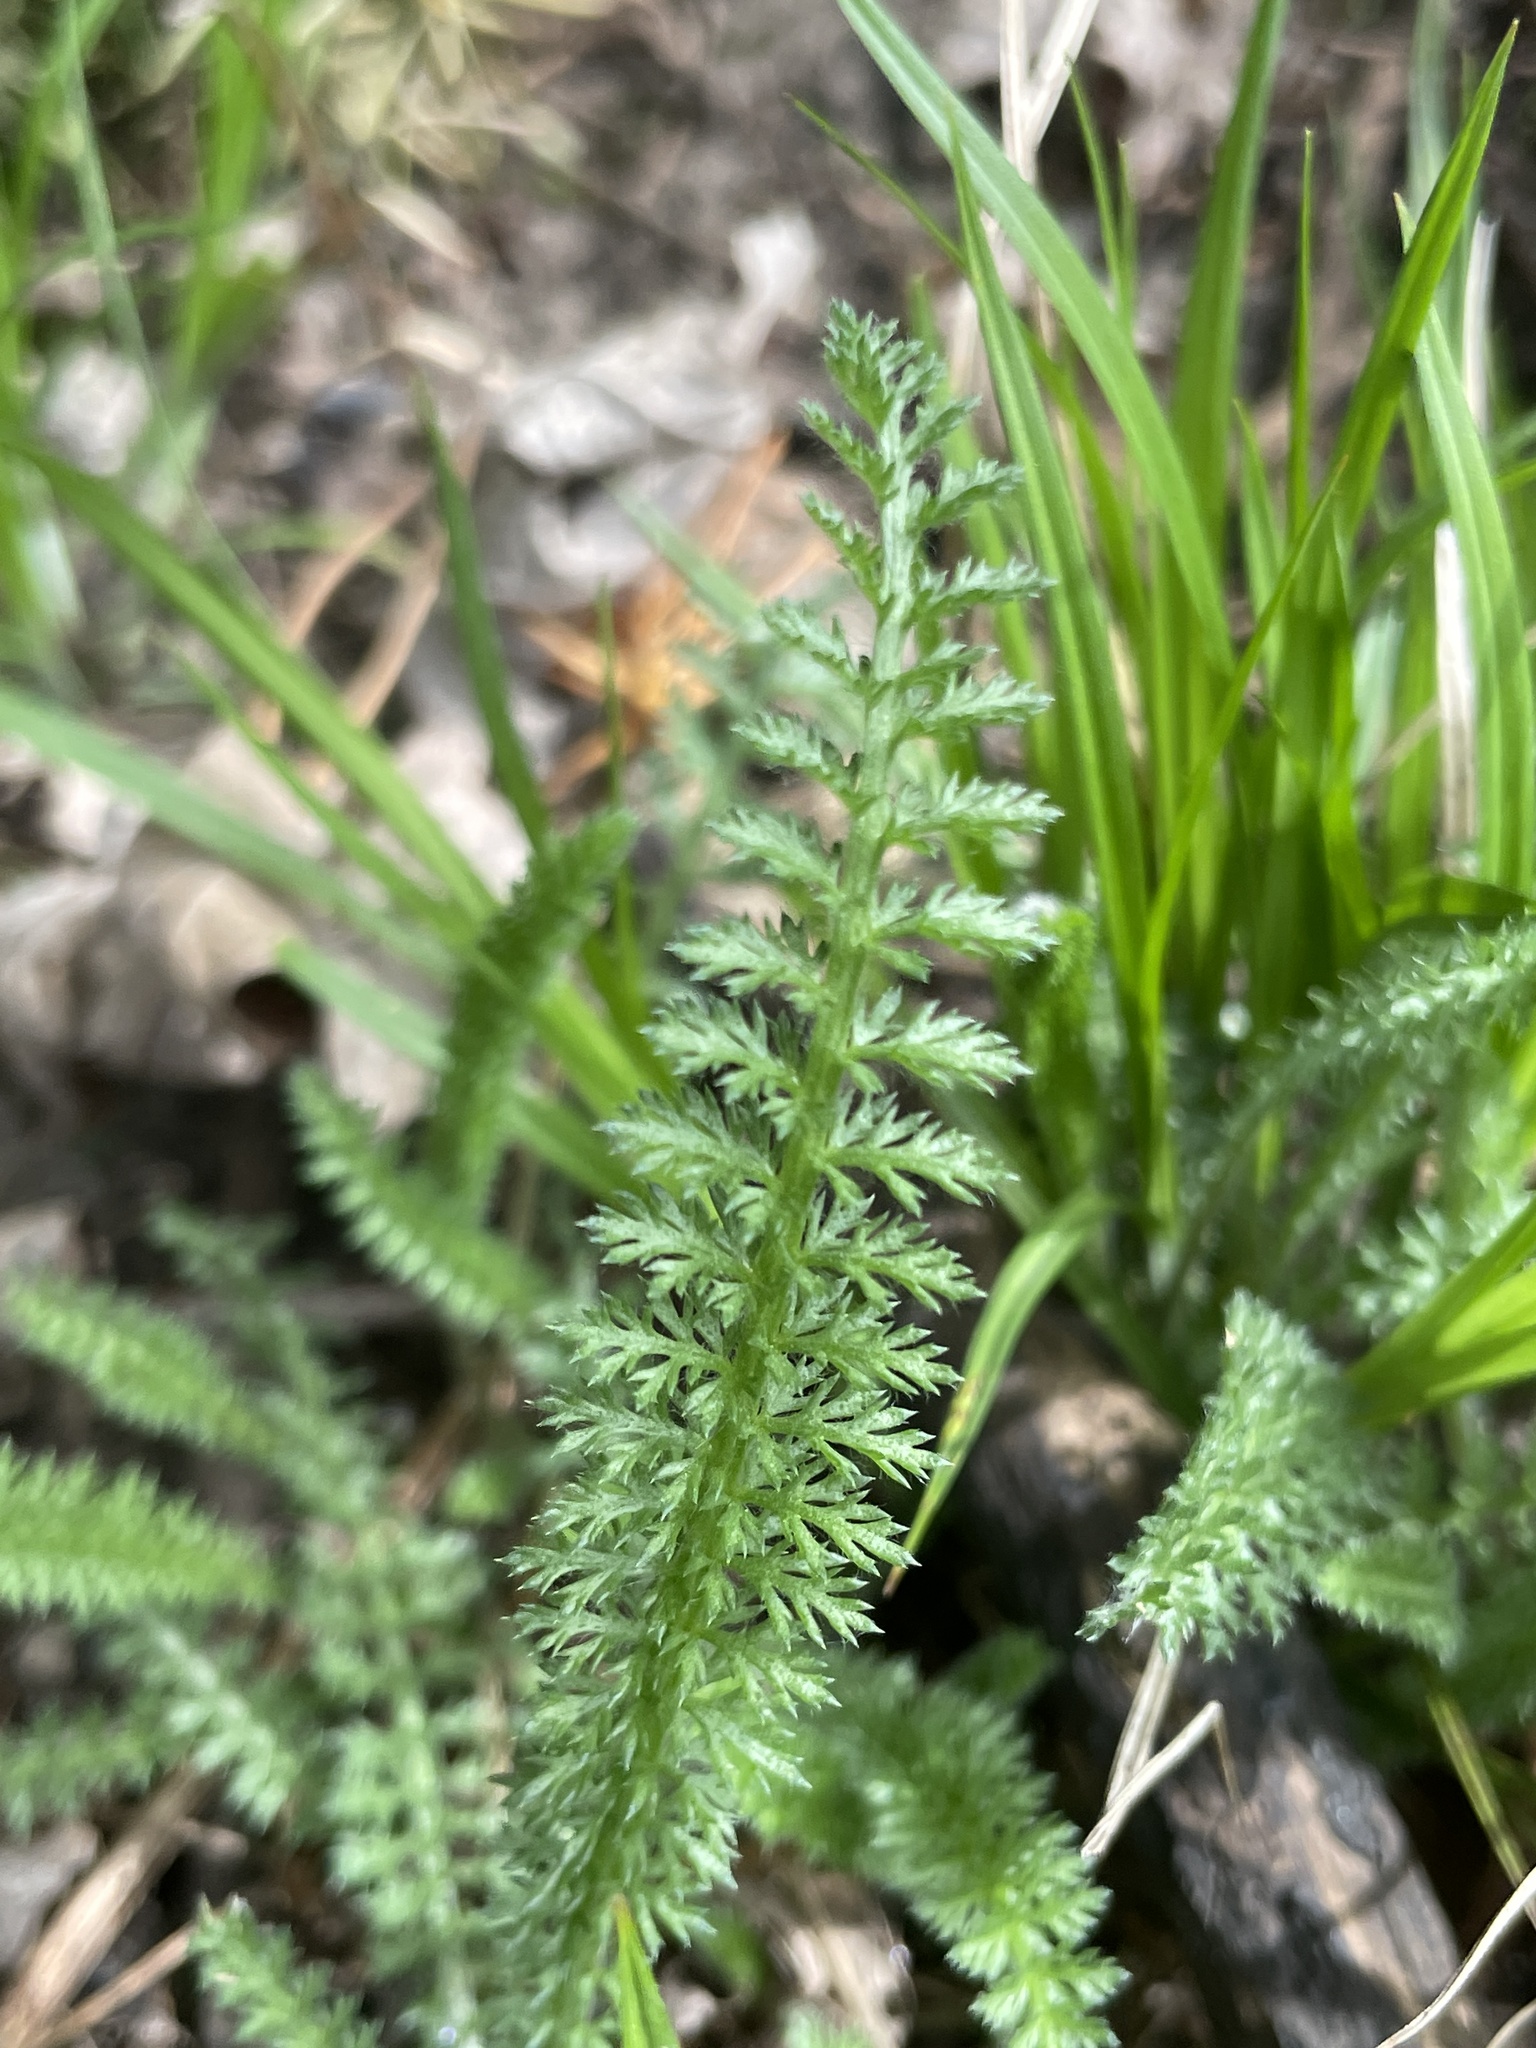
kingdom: Plantae
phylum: Tracheophyta
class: Magnoliopsida
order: Asterales
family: Asteraceae
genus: Achillea
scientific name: Achillea millefolium
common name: Yarrow
